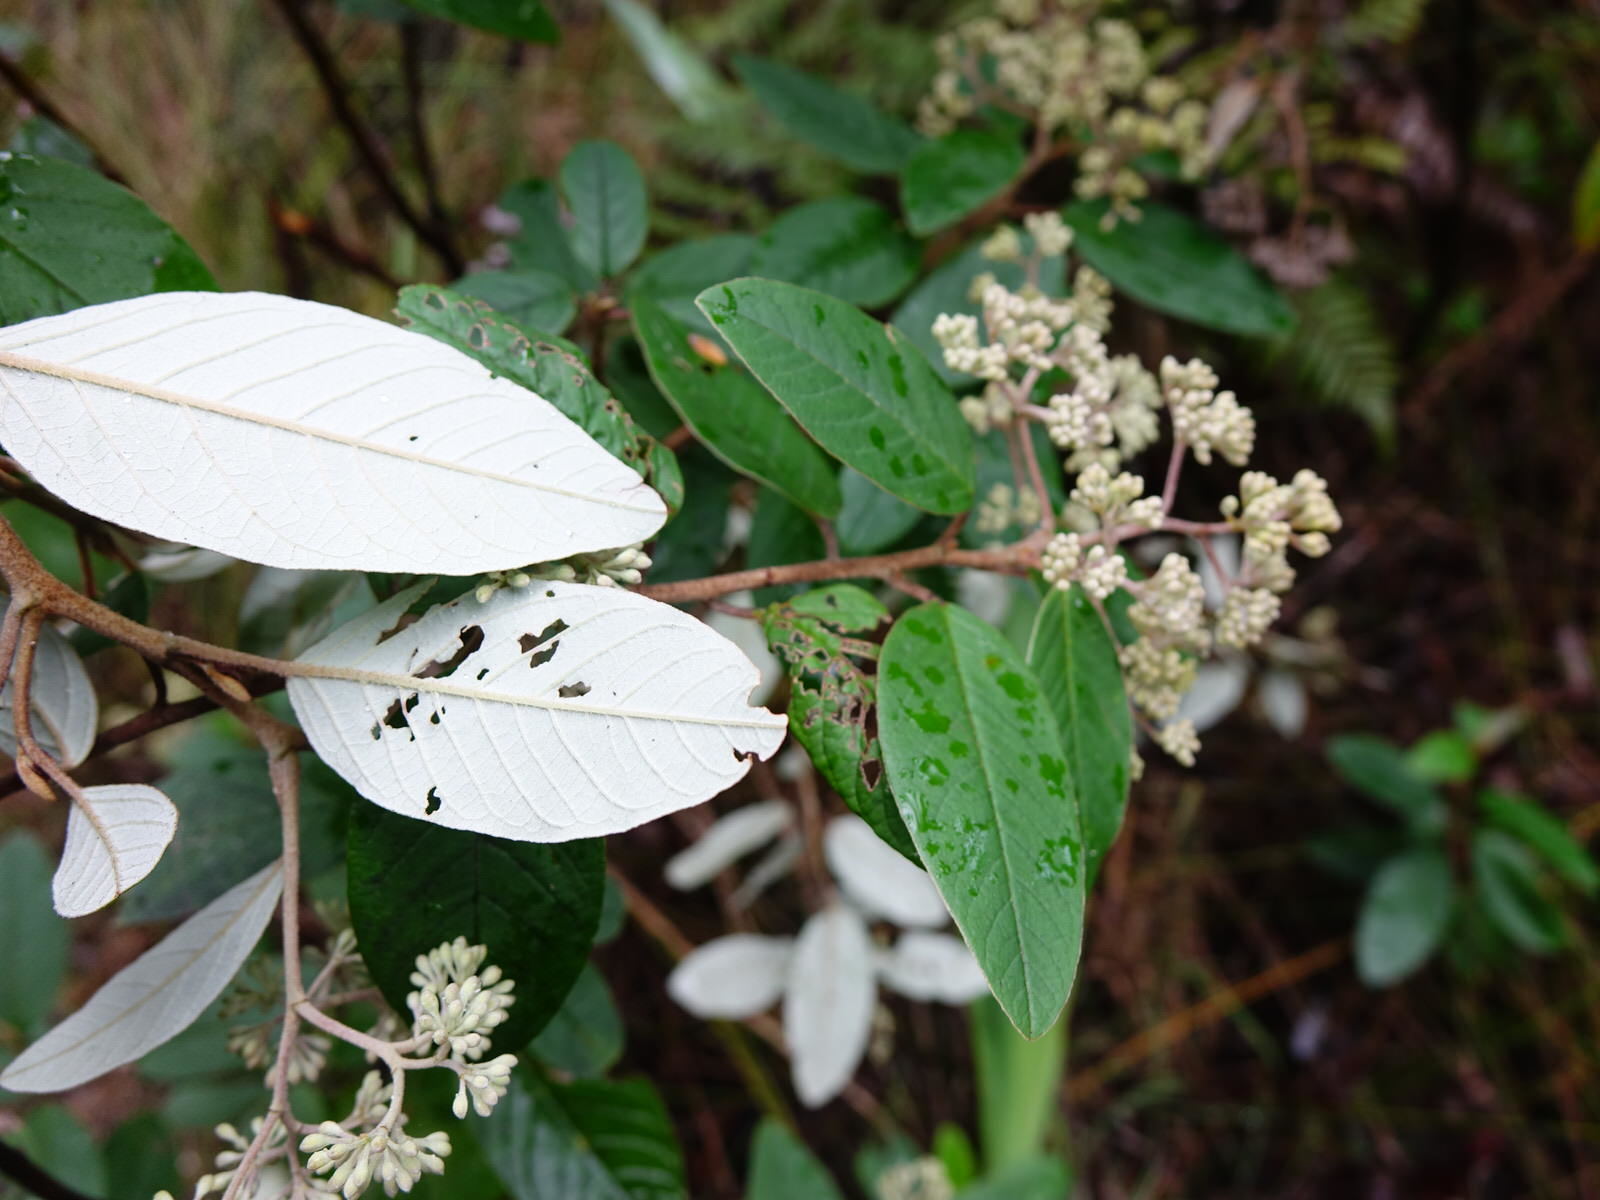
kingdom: Plantae
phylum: Tracheophyta
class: Magnoliopsida
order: Rosales
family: Rhamnaceae
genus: Pomaderris
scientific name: Pomaderris kumeraho
